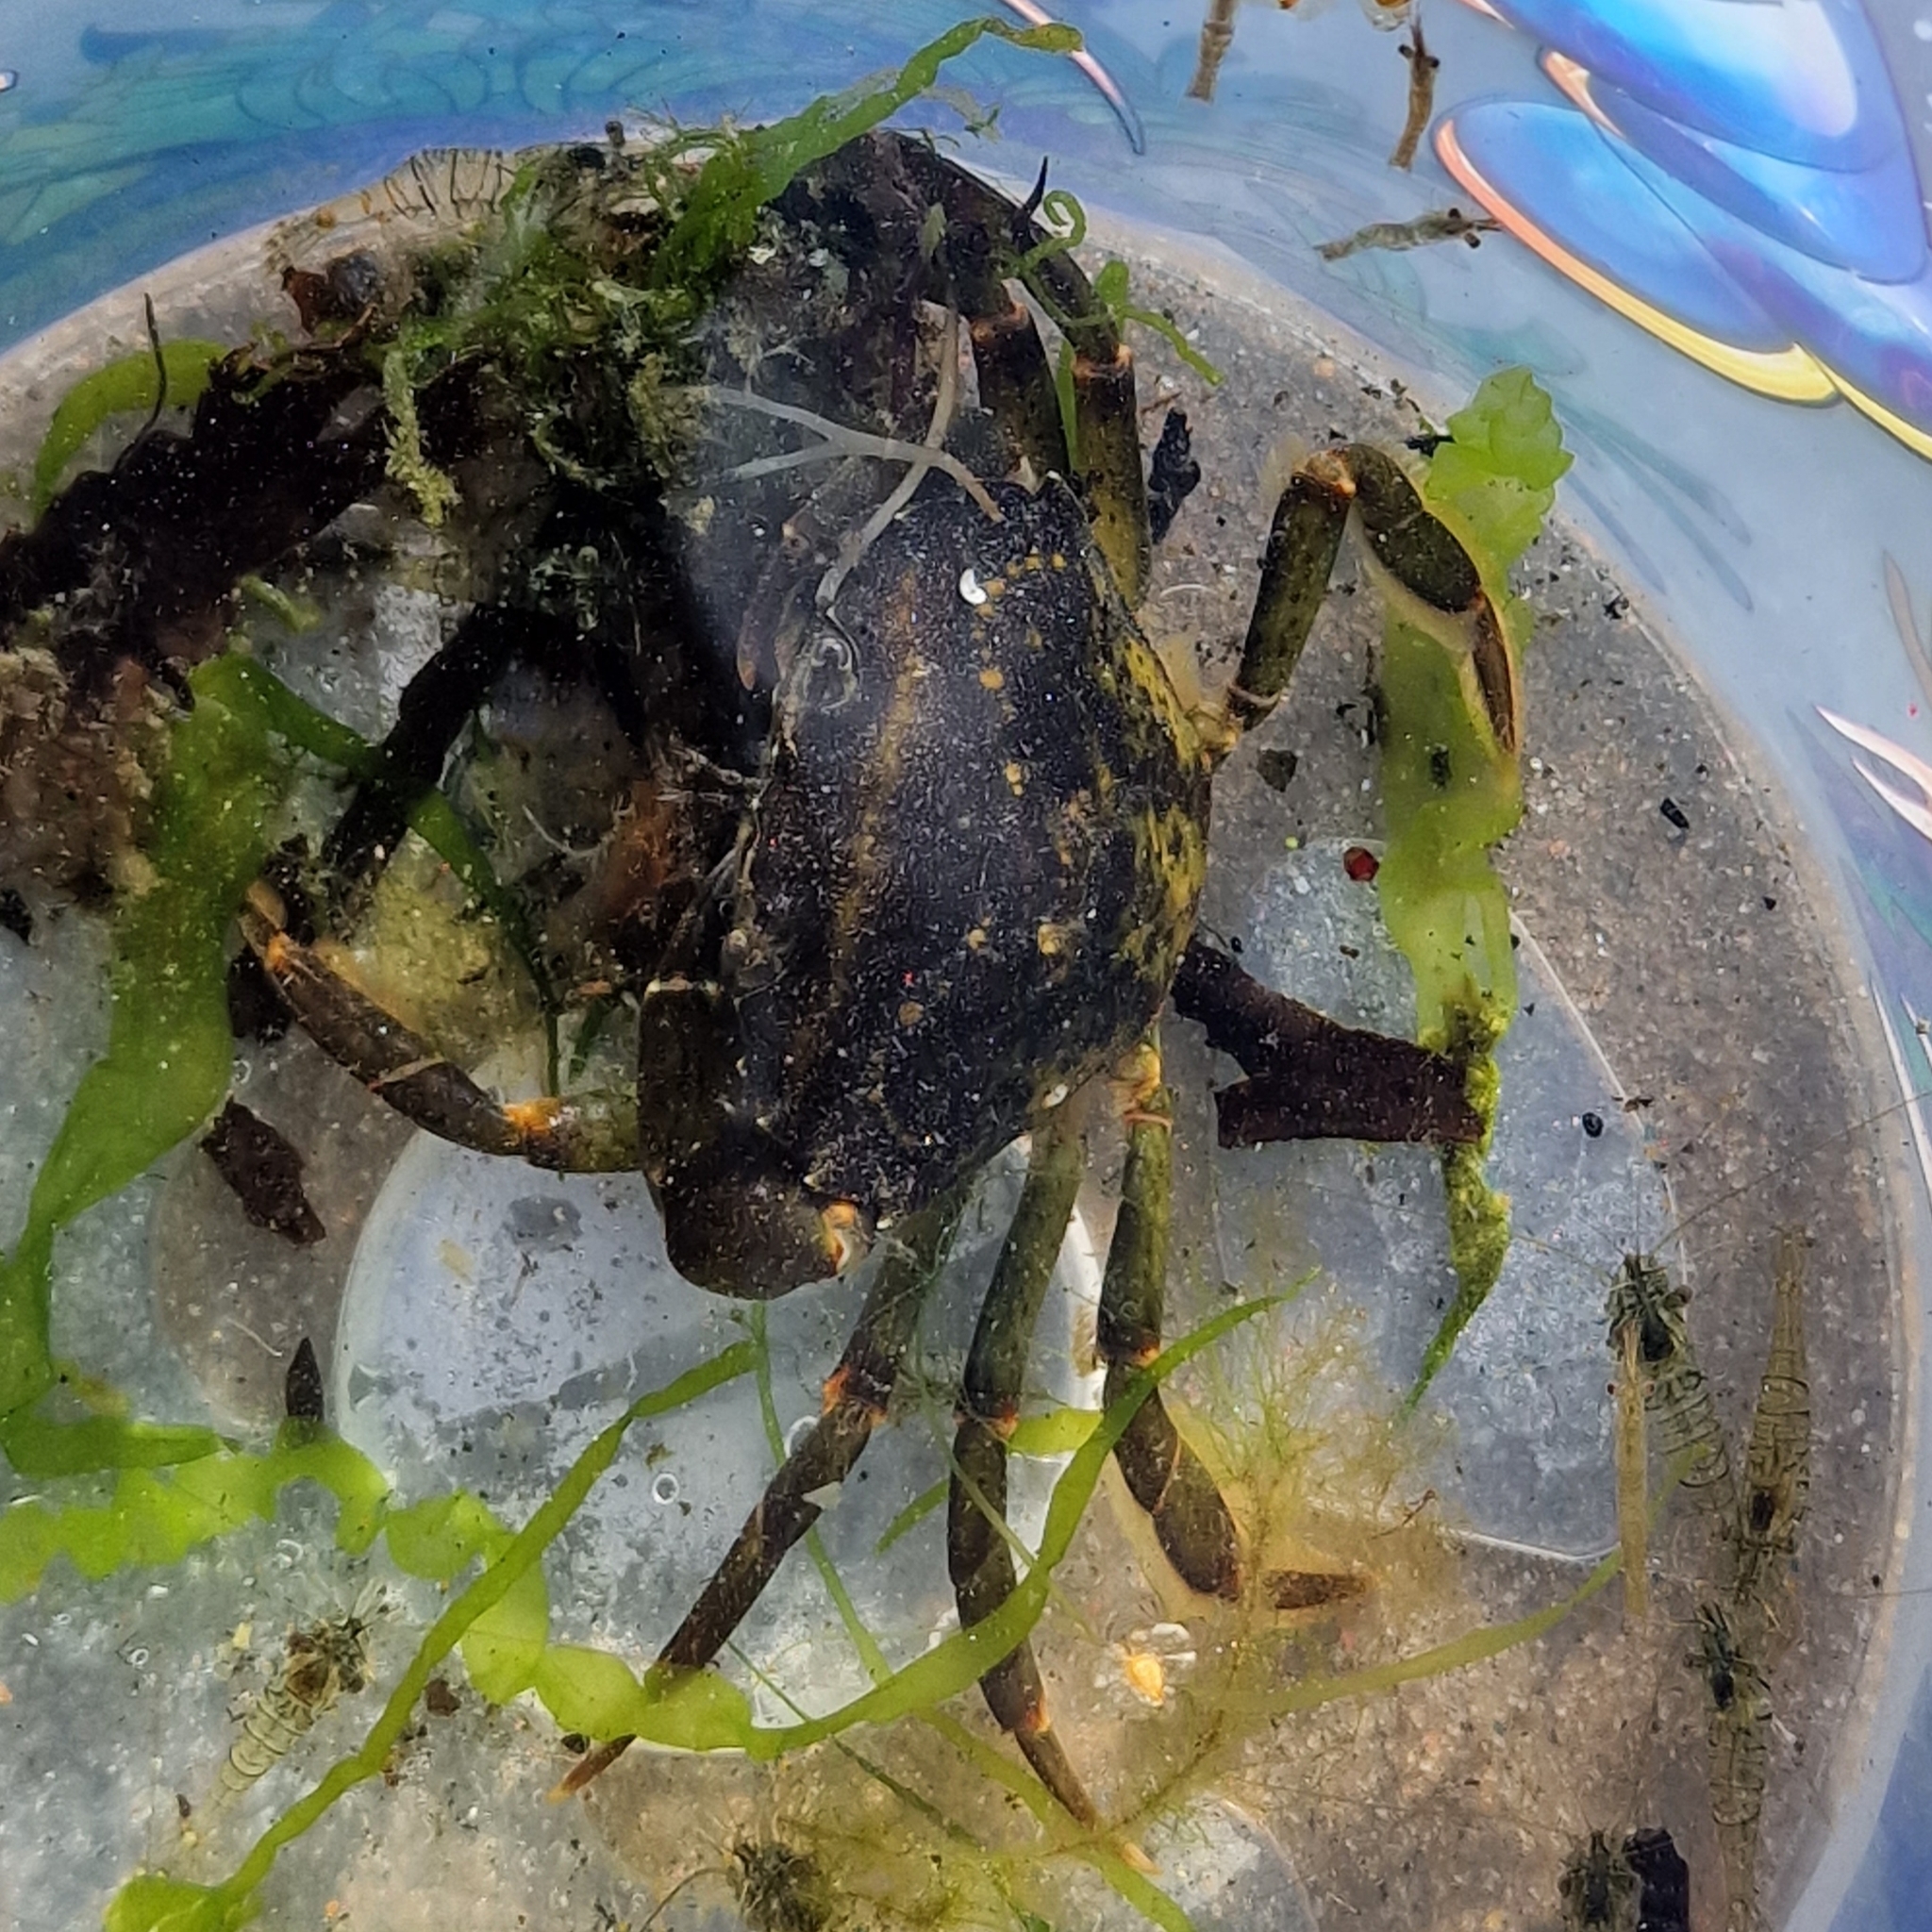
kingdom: Animalia
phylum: Arthropoda
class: Malacostraca
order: Decapoda
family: Carcinidae
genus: Carcinus
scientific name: Carcinus maenas
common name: European green crab
